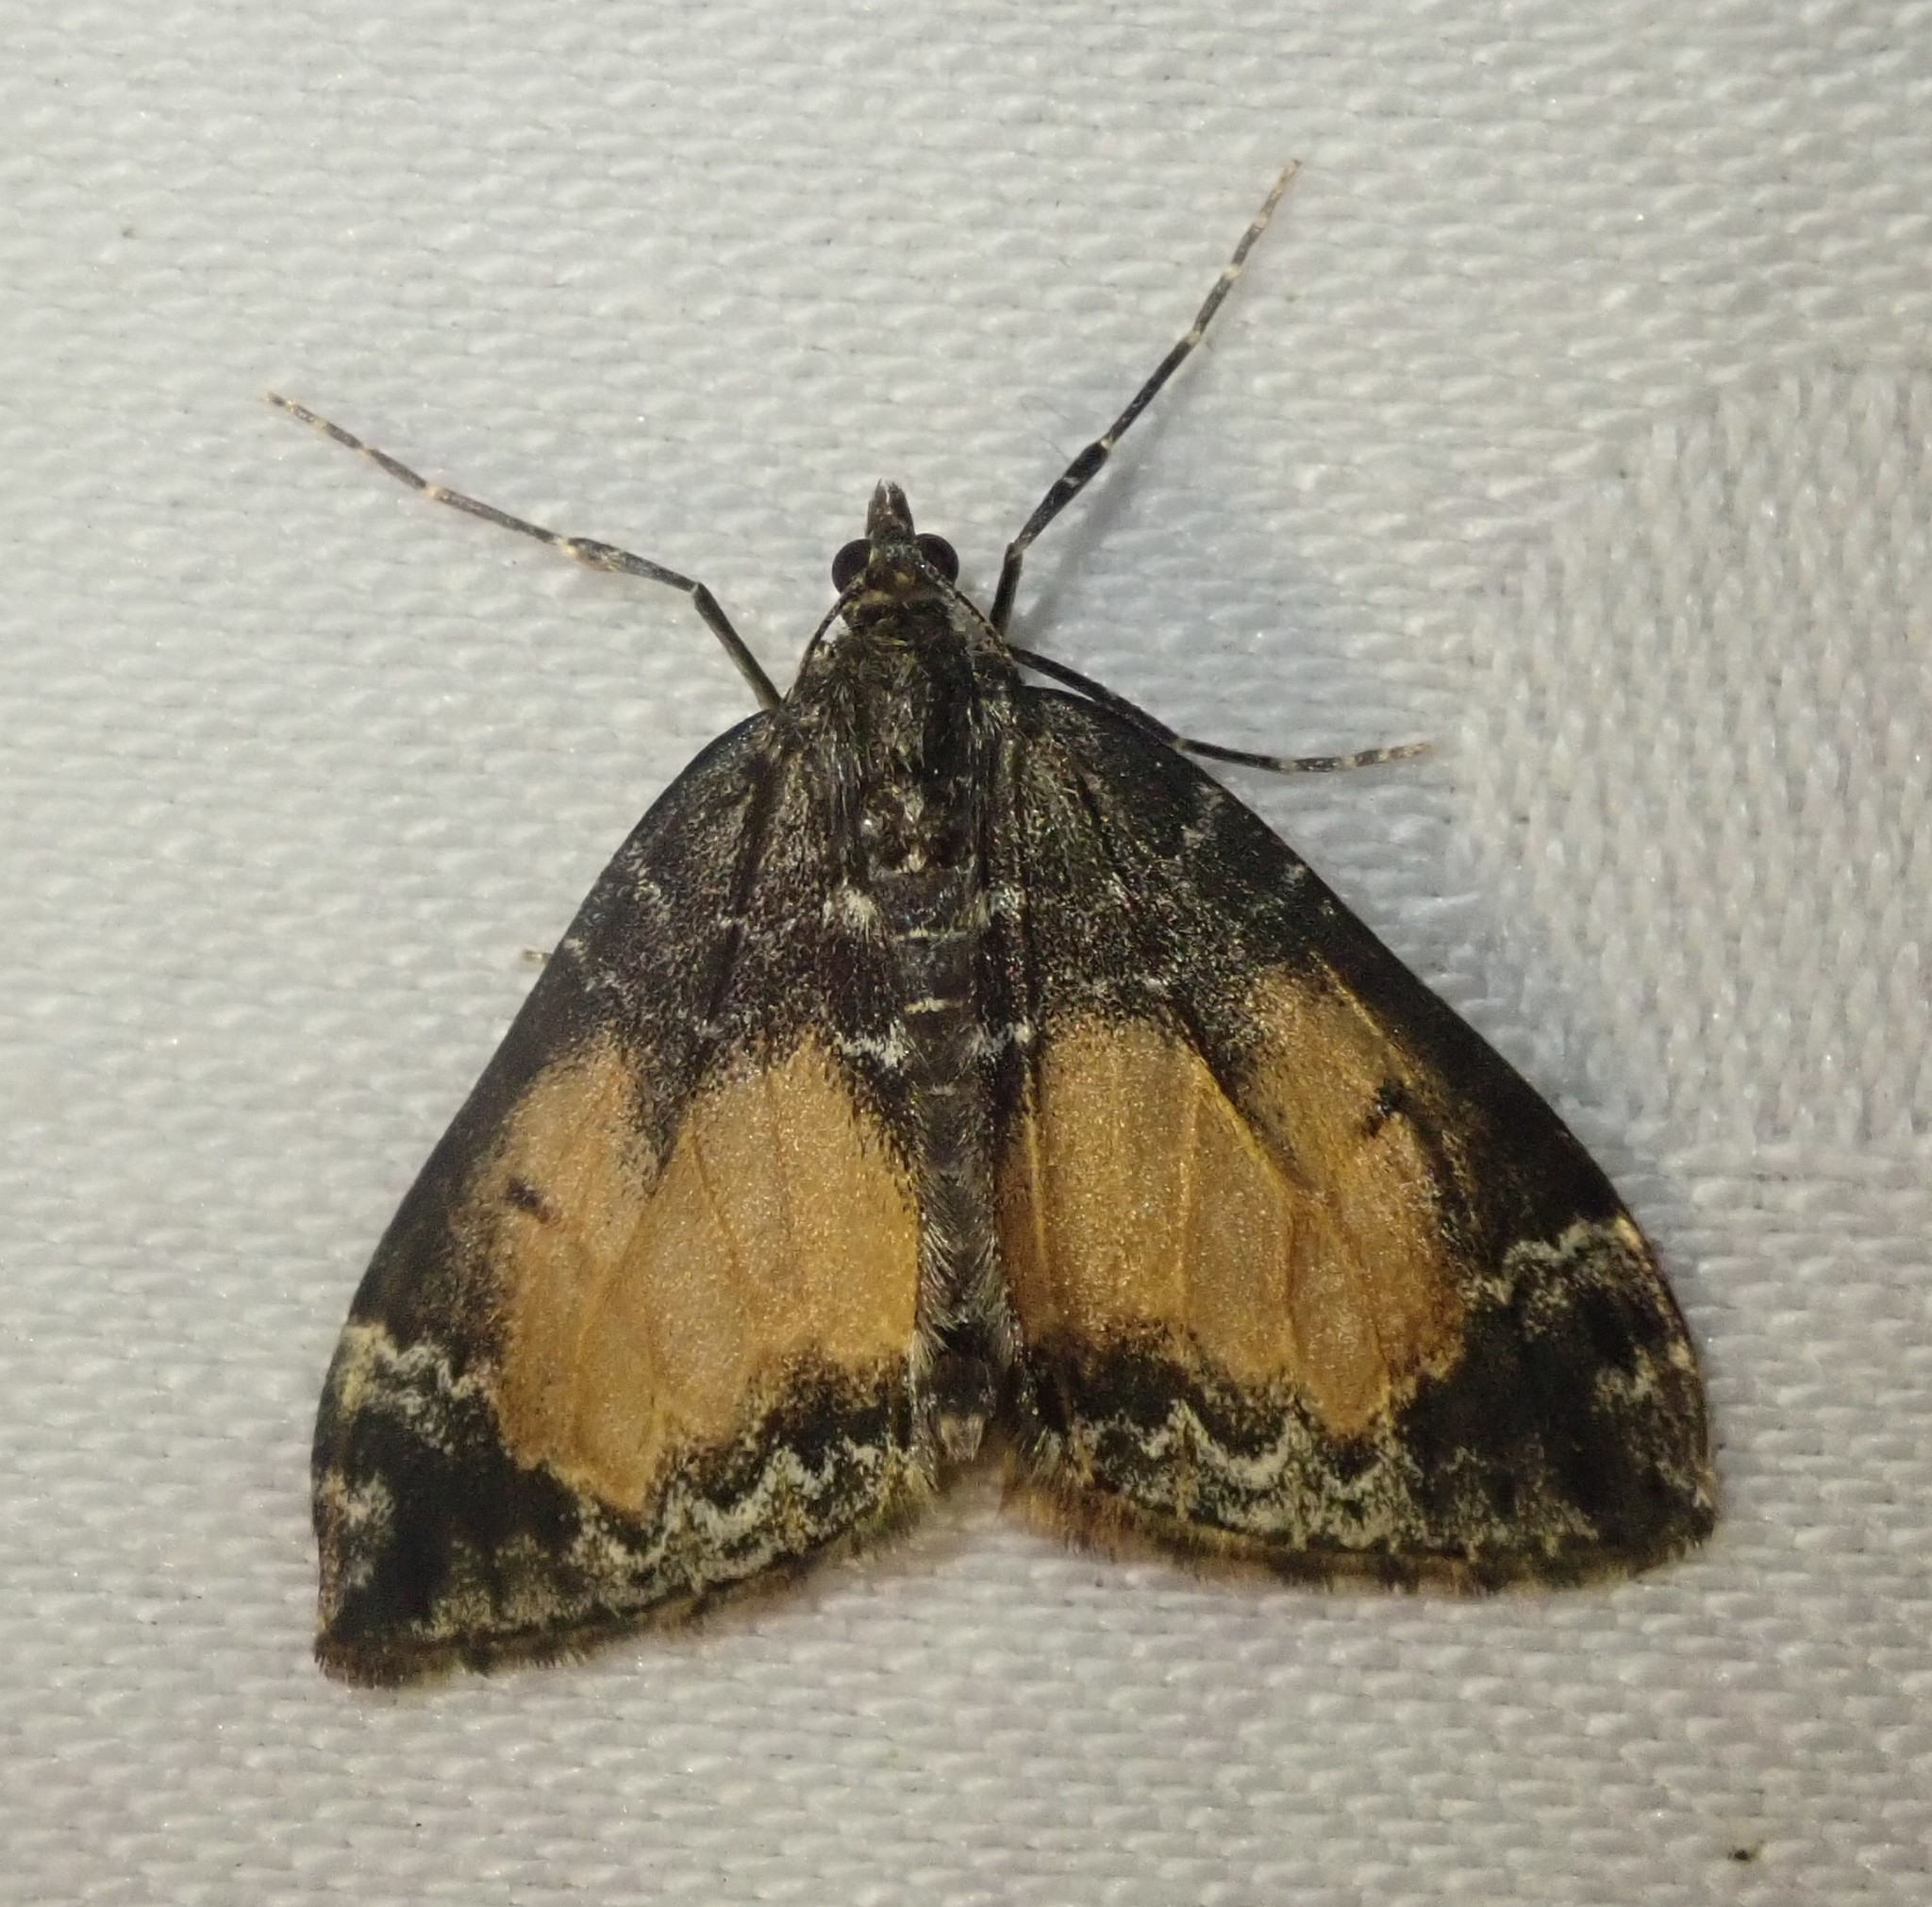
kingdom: Animalia
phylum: Arthropoda
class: Insecta
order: Lepidoptera
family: Geometridae
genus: Dysstroma
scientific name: Dysstroma truncata
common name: Common marbled carpet
